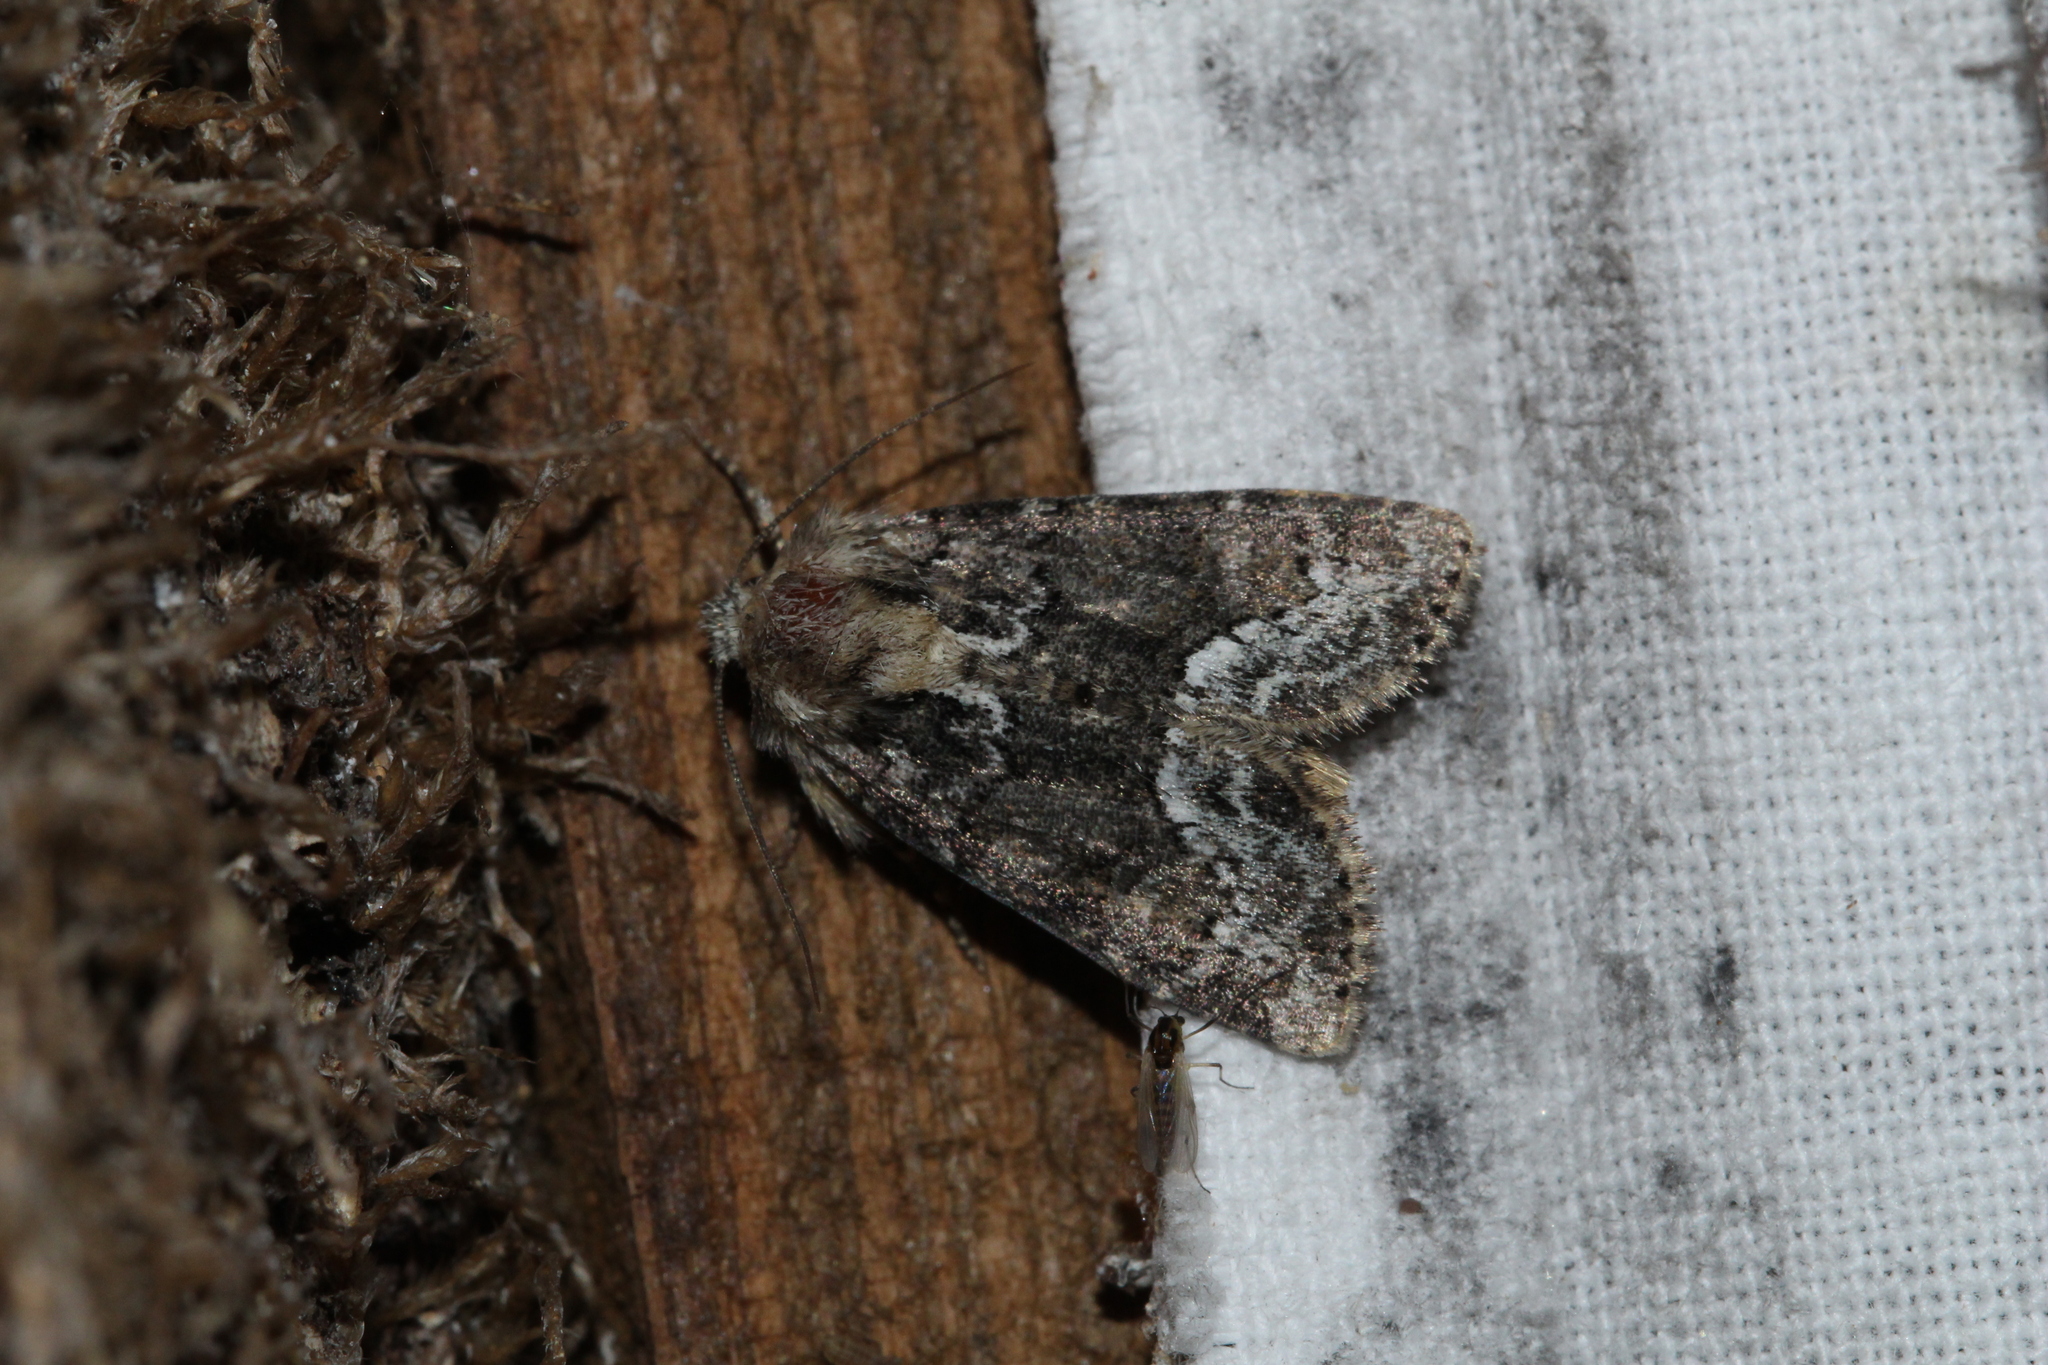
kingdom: Animalia
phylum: Arthropoda
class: Insecta
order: Lepidoptera
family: Noctuidae
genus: Oligia
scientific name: Oligia strigilis
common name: Marbled minor
